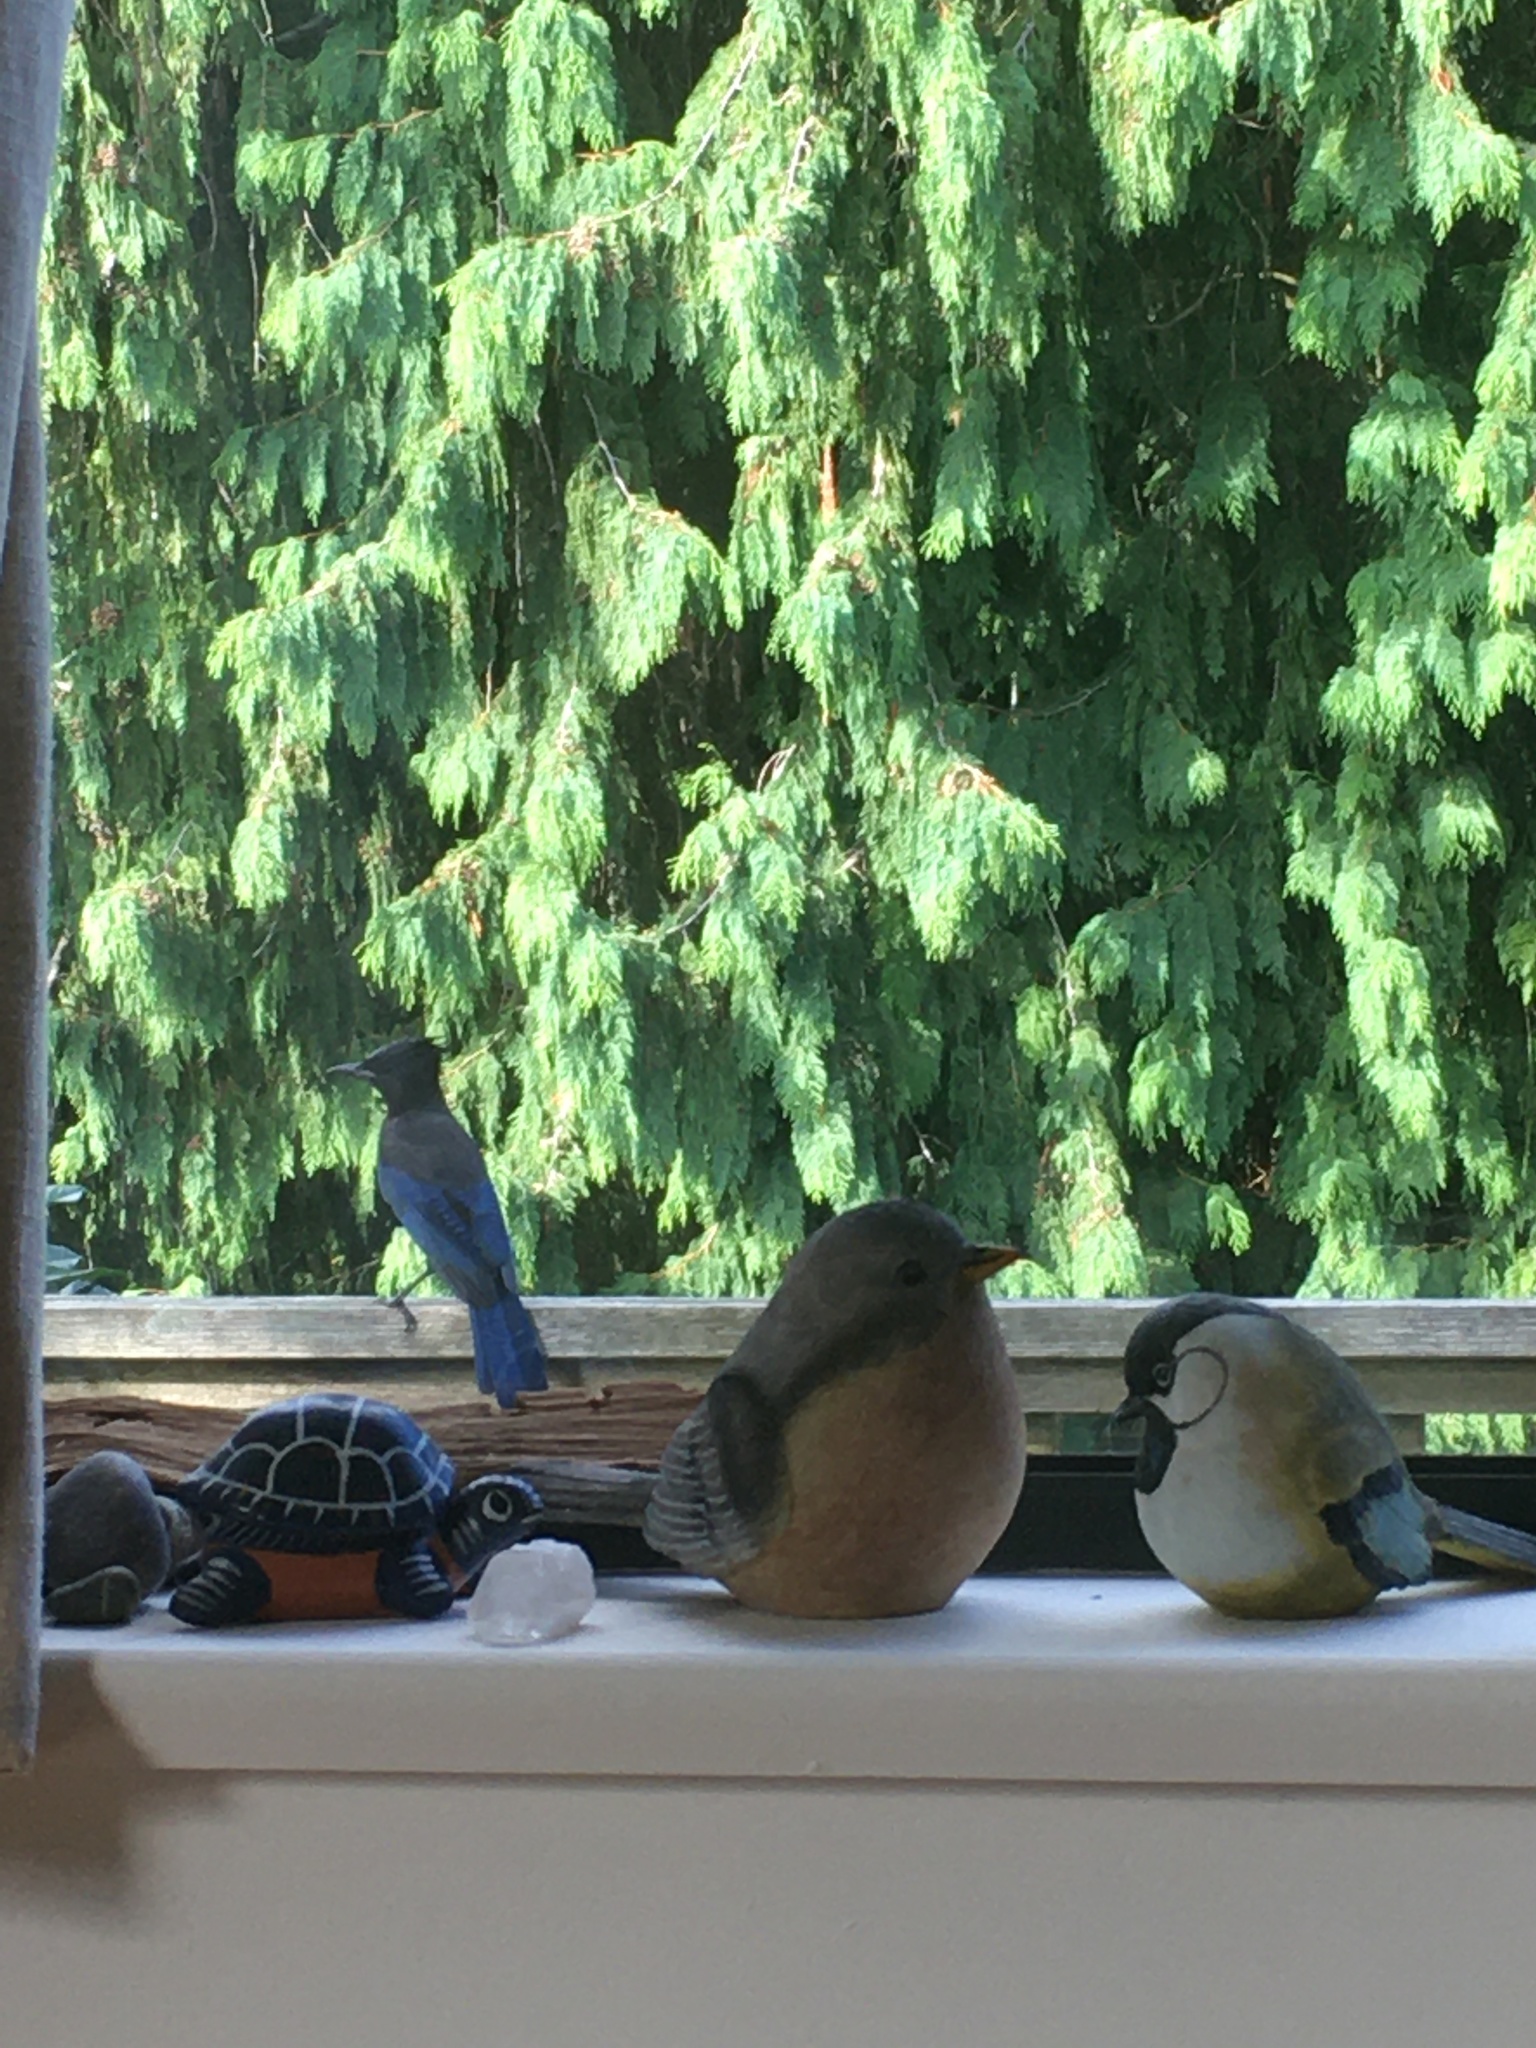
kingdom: Animalia
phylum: Chordata
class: Aves
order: Passeriformes
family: Corvidae
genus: Cyanocitta
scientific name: Cyanocitta stelleri
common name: Steller's jay
